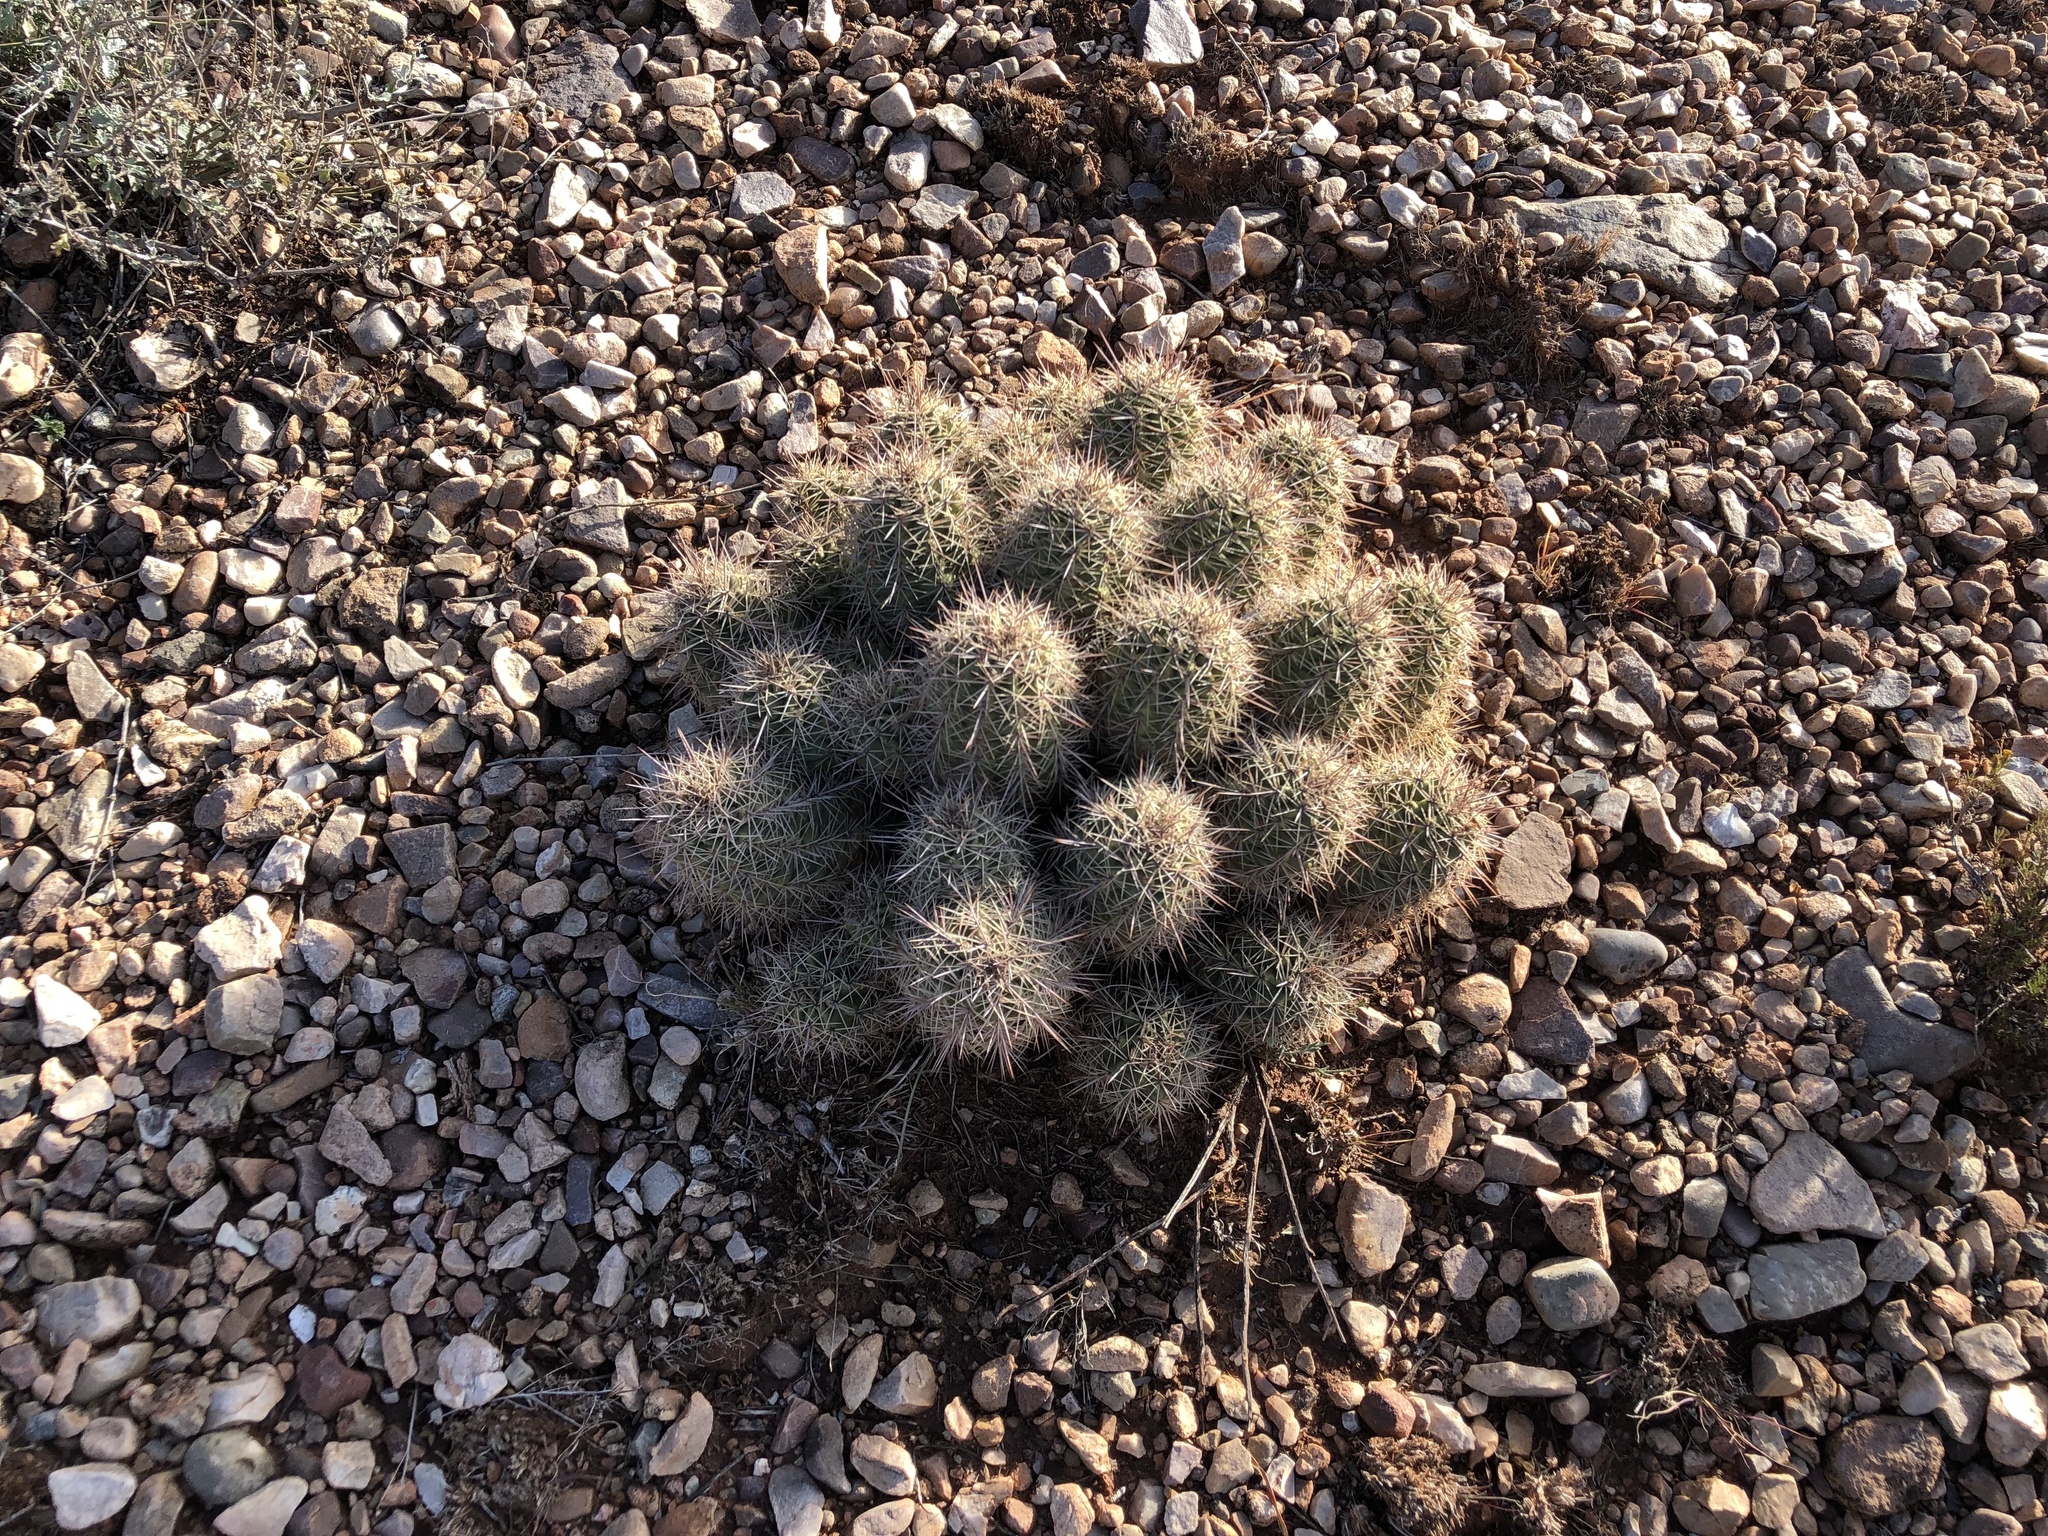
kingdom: Plantae
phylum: Tracheophyta
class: Magnoliopsida
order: Caryophyllales
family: Cactaceae
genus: Echinocereus
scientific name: Echinocereus coccineus
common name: Scarlet hedgehog cactus
